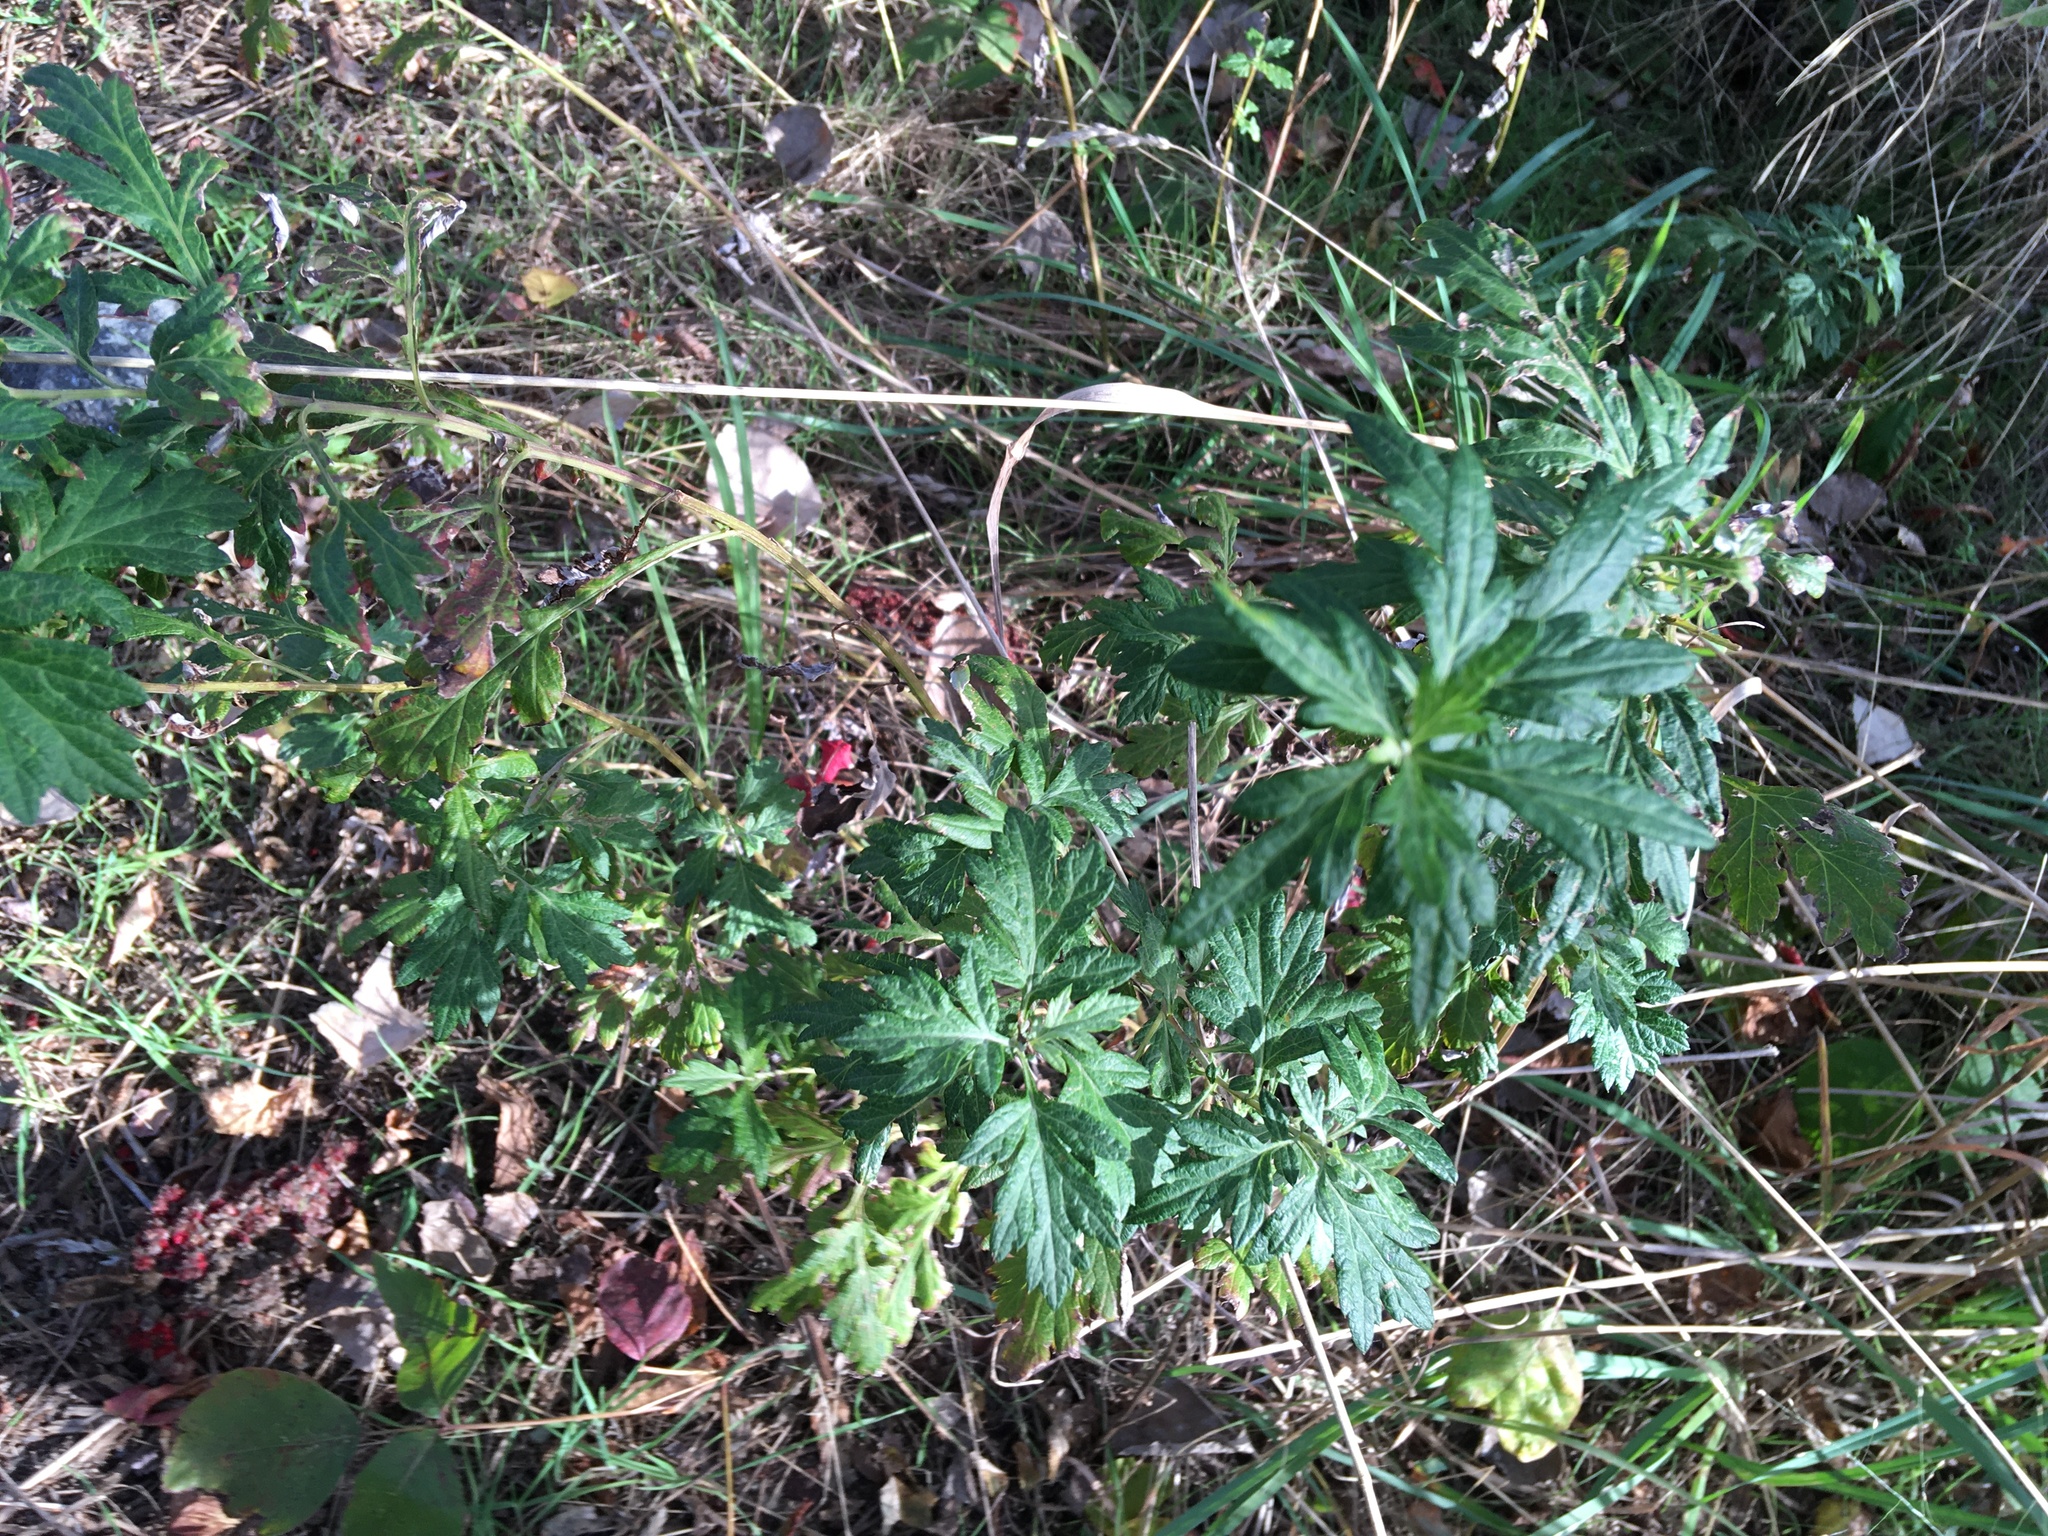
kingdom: Plantae
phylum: Tracheophyta
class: Magnoliopsida
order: Asterales
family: Asteraceae
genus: Artemisia
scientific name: Artemisia vulgaris
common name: Mugwort
